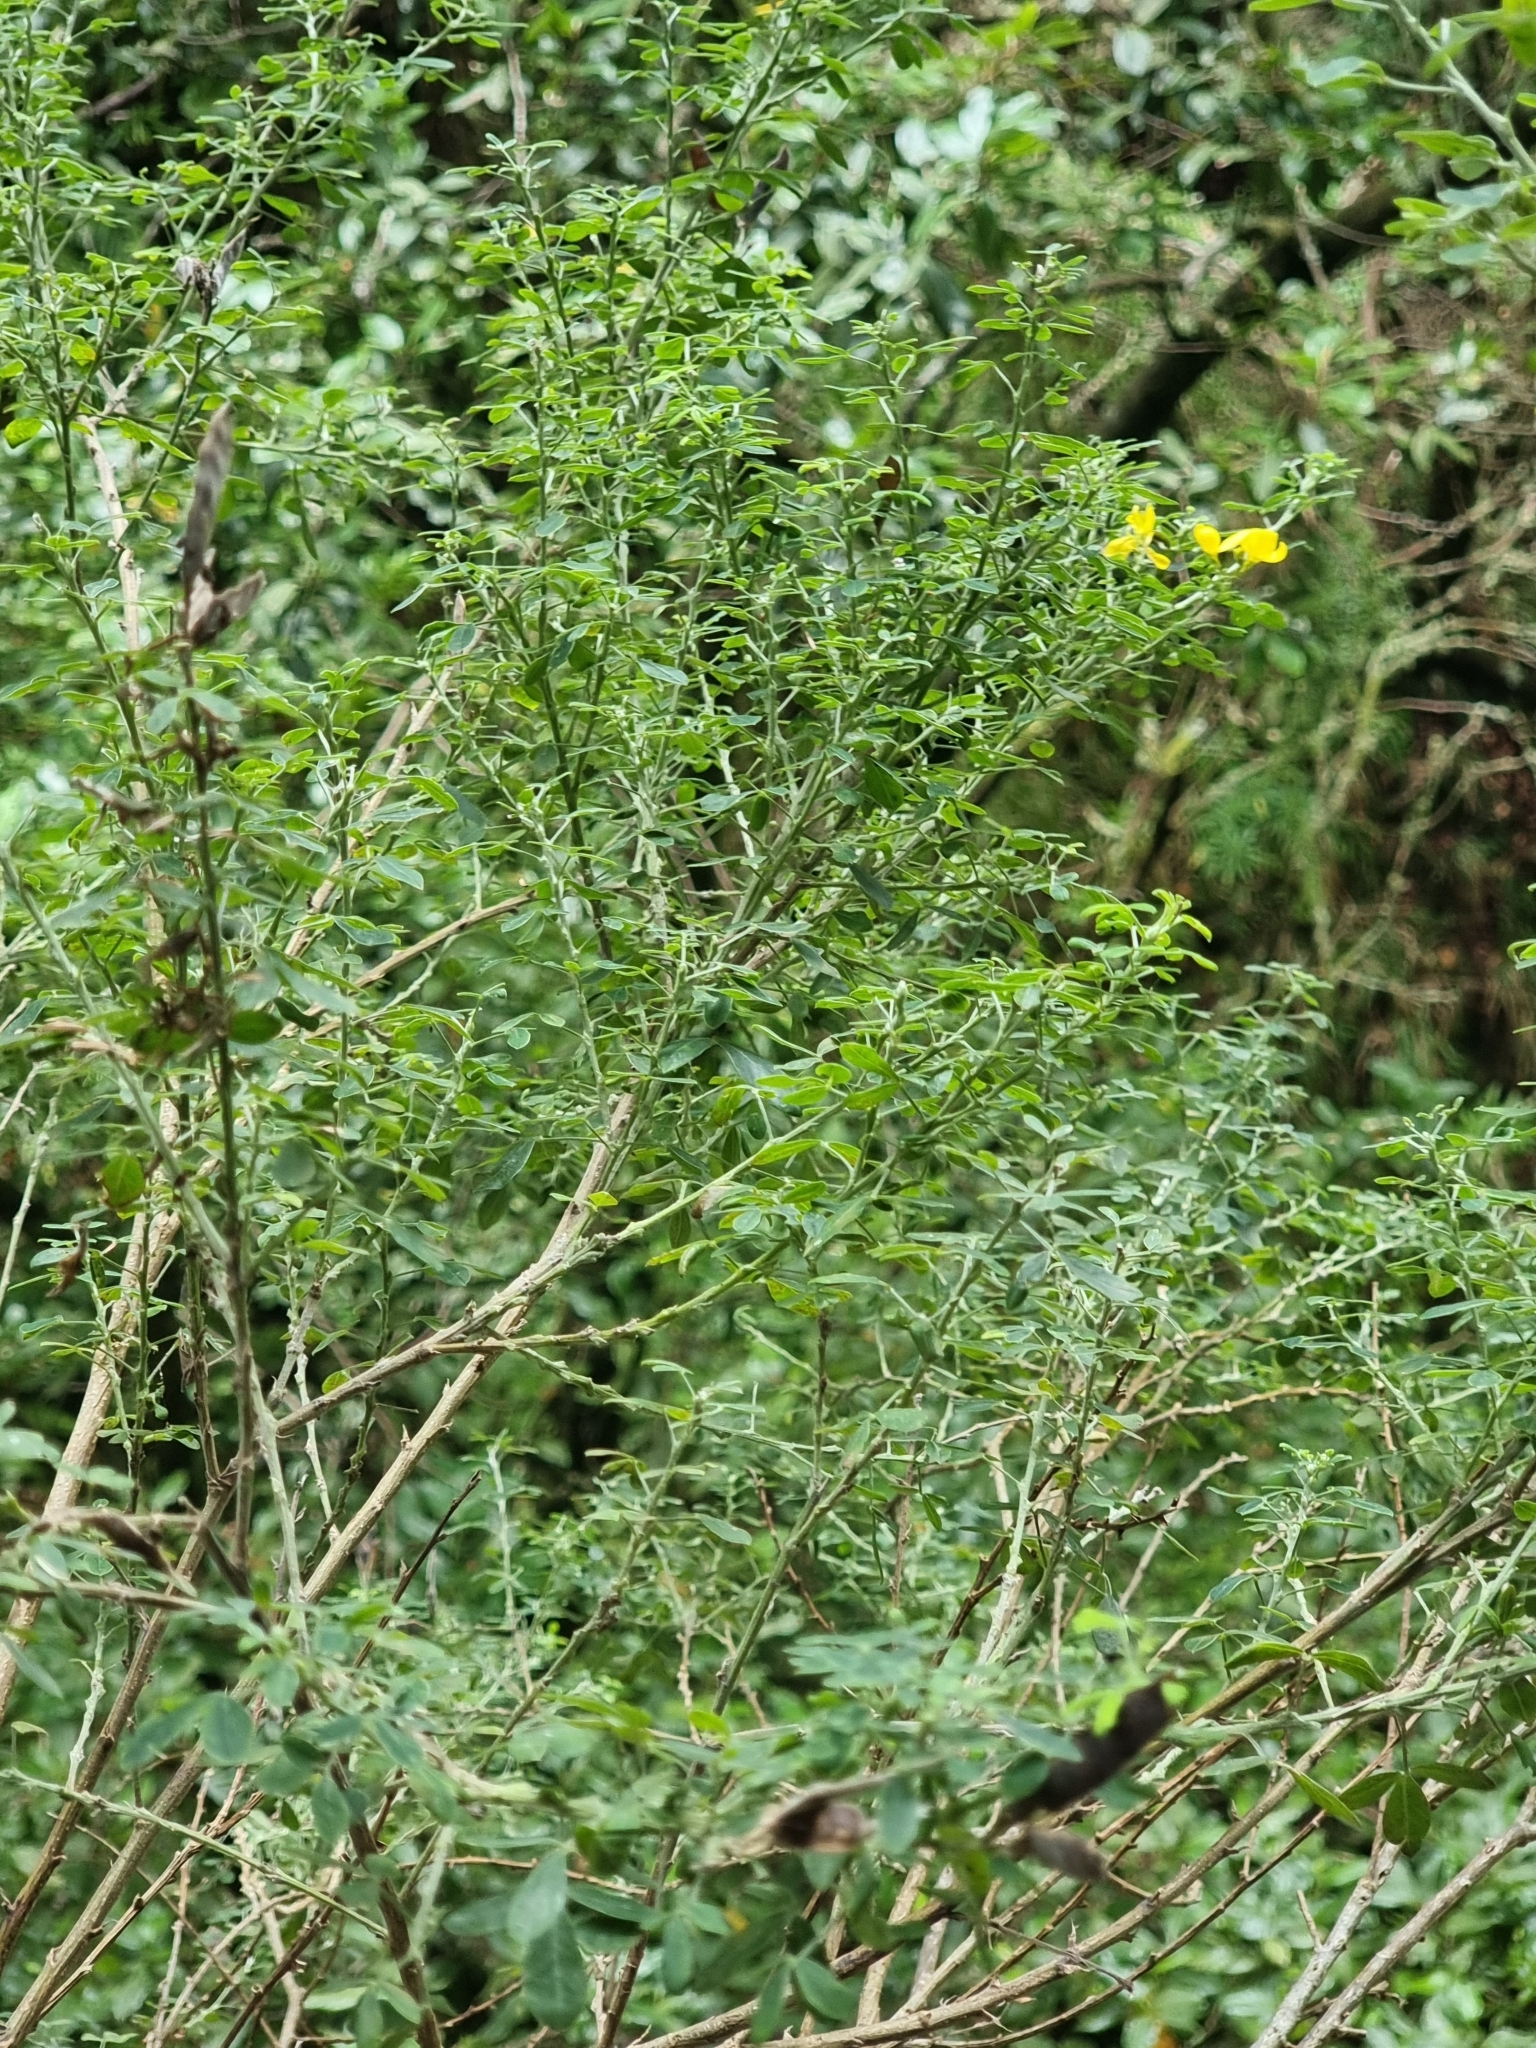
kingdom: Plantae
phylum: Tracheophyta
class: Magnoliopsida
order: Fabales
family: Fabaceae
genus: Genista
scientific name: Genista maderensis
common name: Madeira dyer's greenweed
